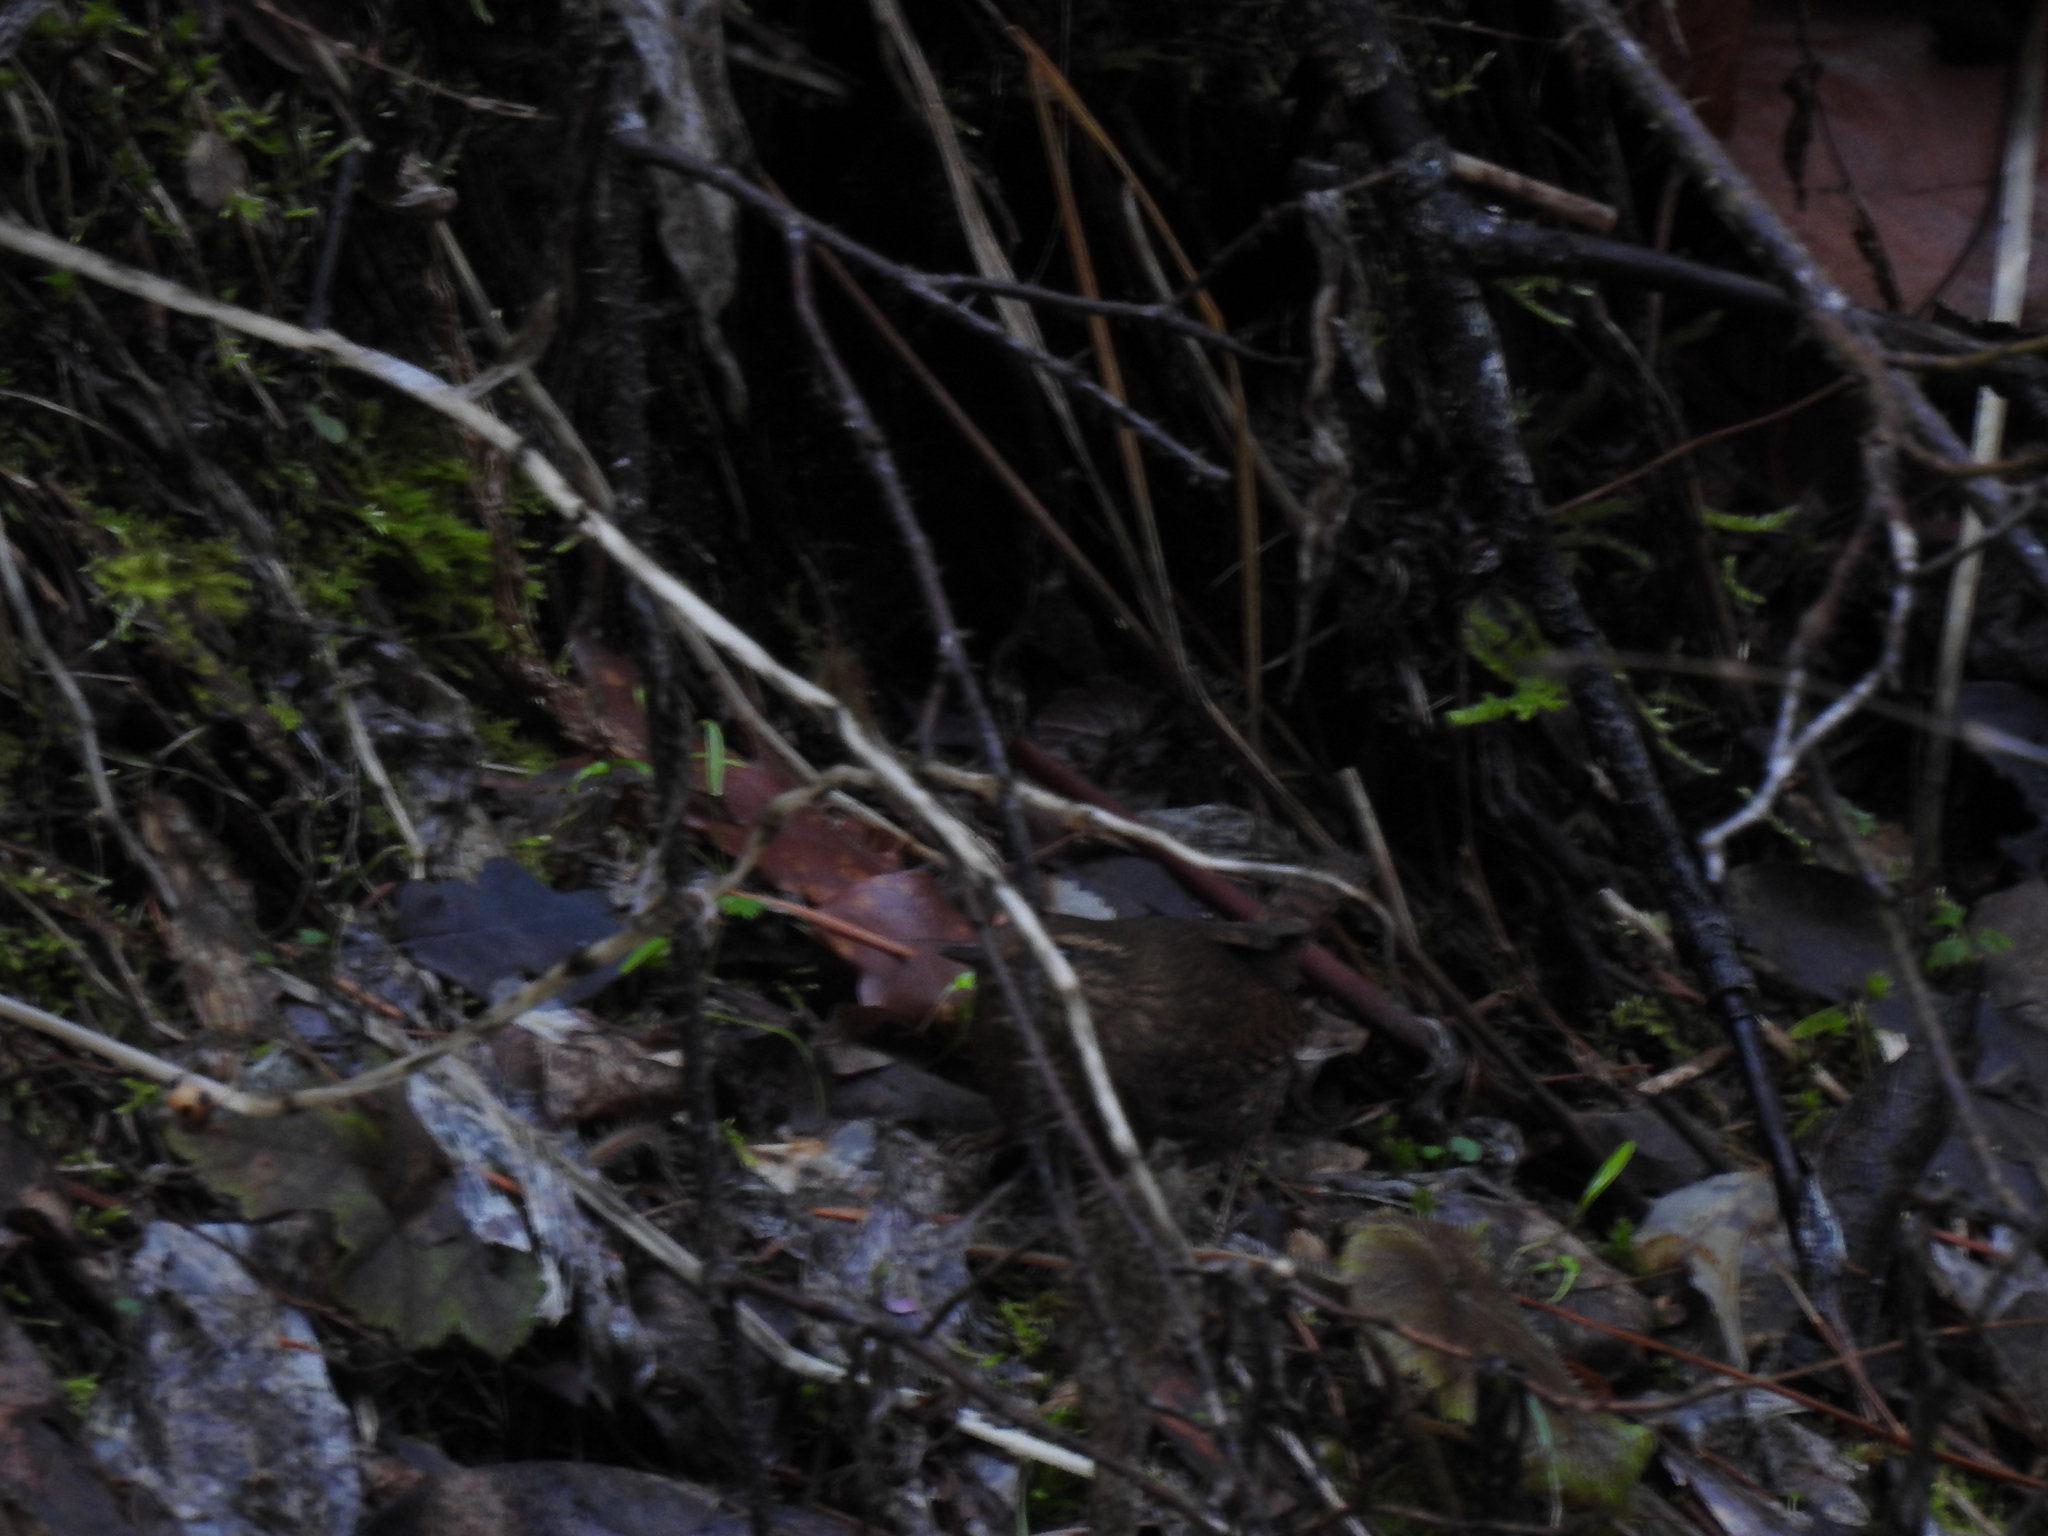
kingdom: Animalia
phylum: Chordata
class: Aves
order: Passeriformes
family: Troglodytidae
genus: Troglodytes
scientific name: Troglodytes pacificus
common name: Pacific wren
